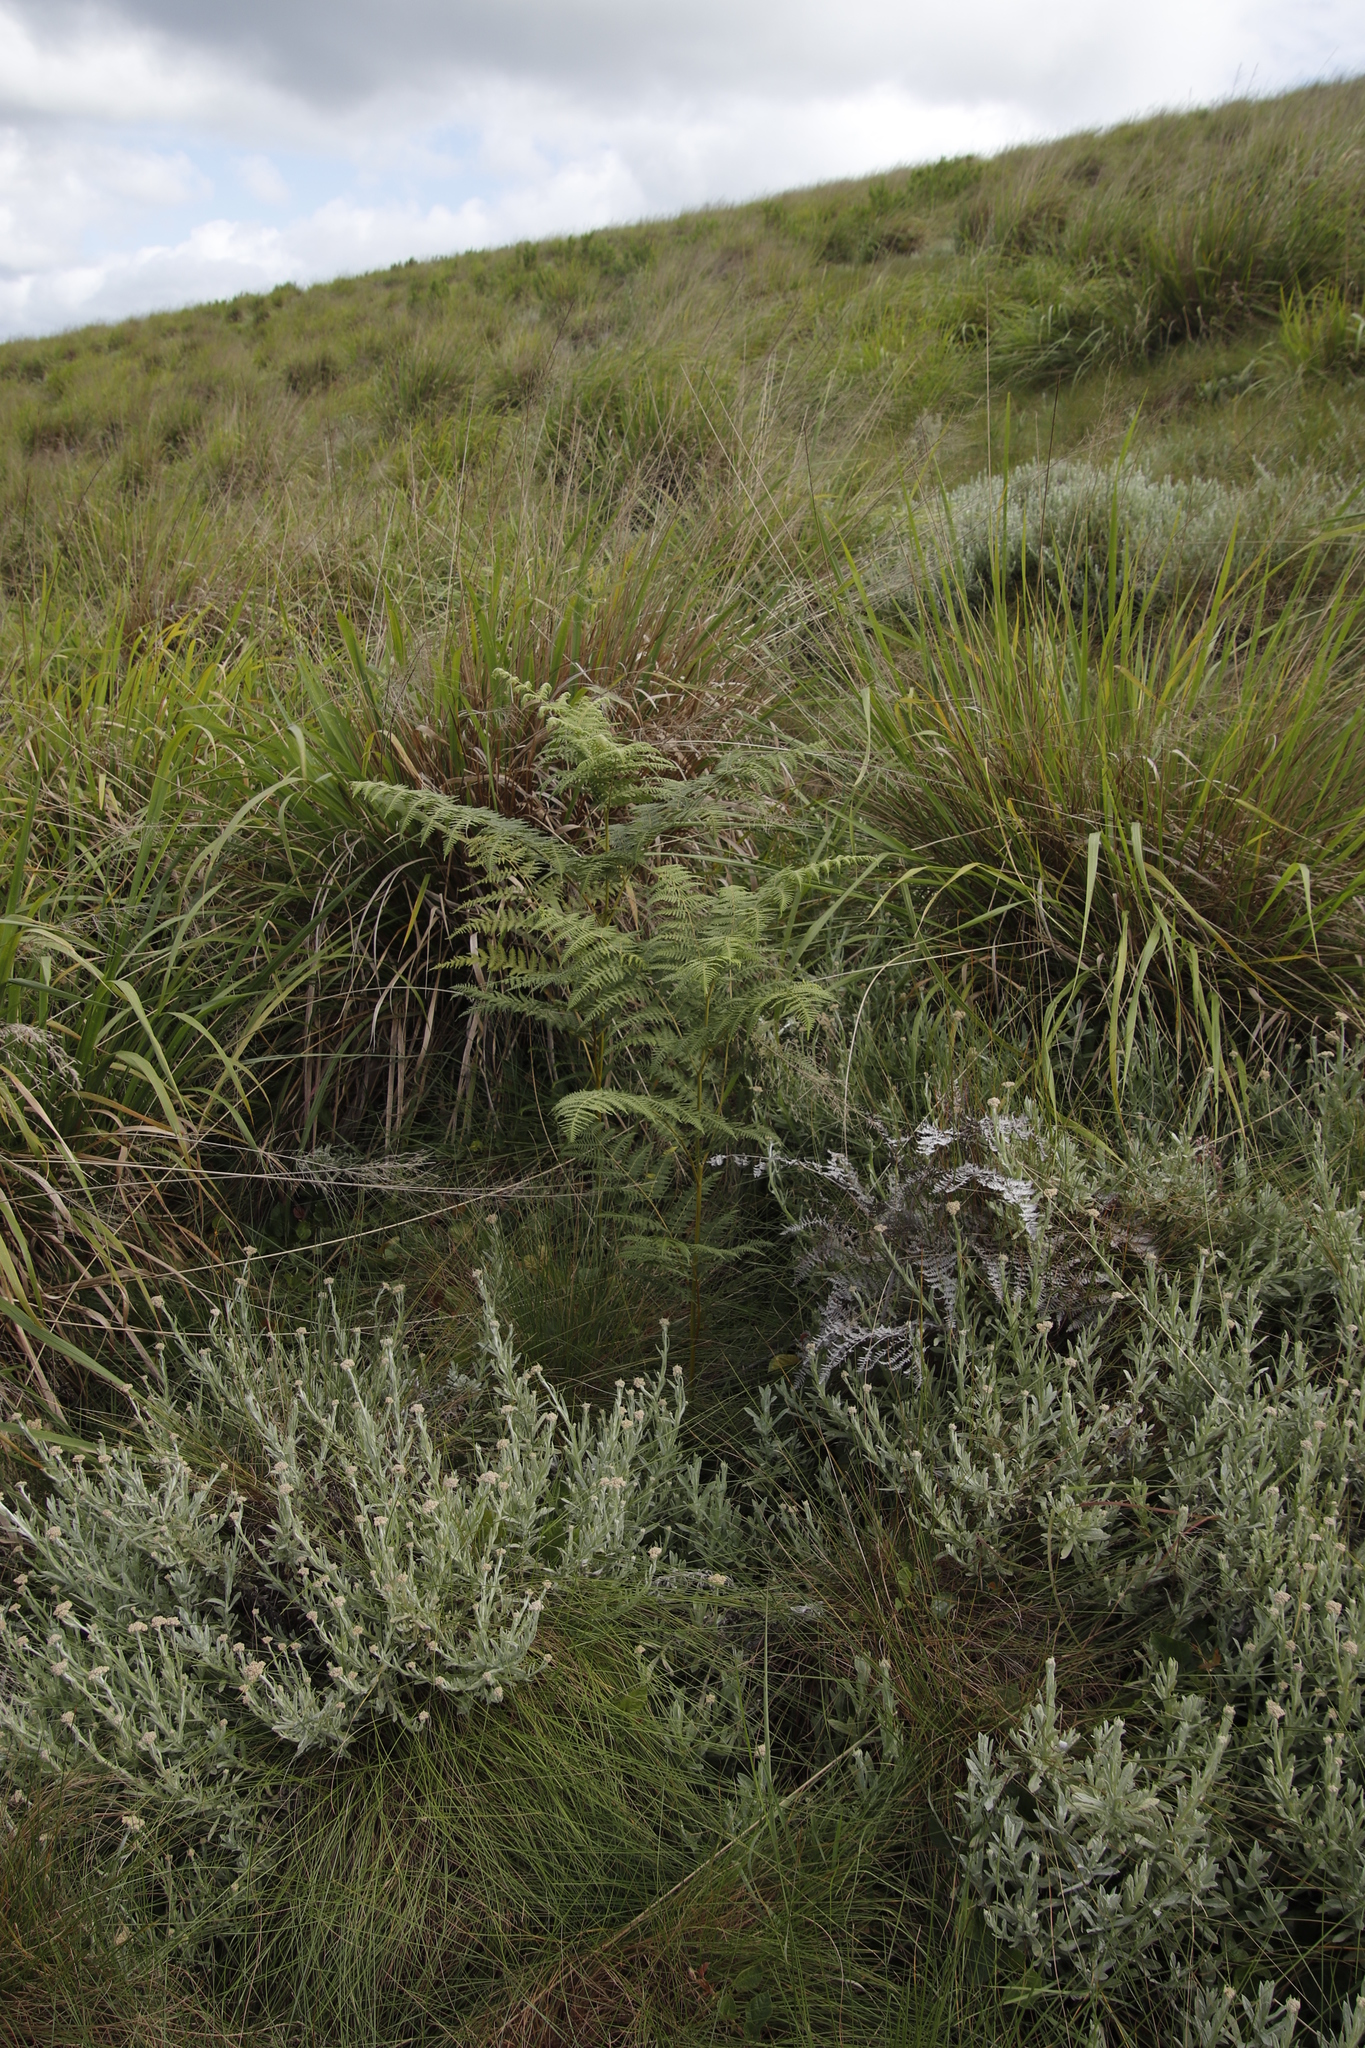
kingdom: Plantae
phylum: Tracheophyta
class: Polypodiopsida
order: Polypodiales
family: Dennstaedtiaceae
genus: Pteridium
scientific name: Pteridium aquilinum
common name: Bracken
